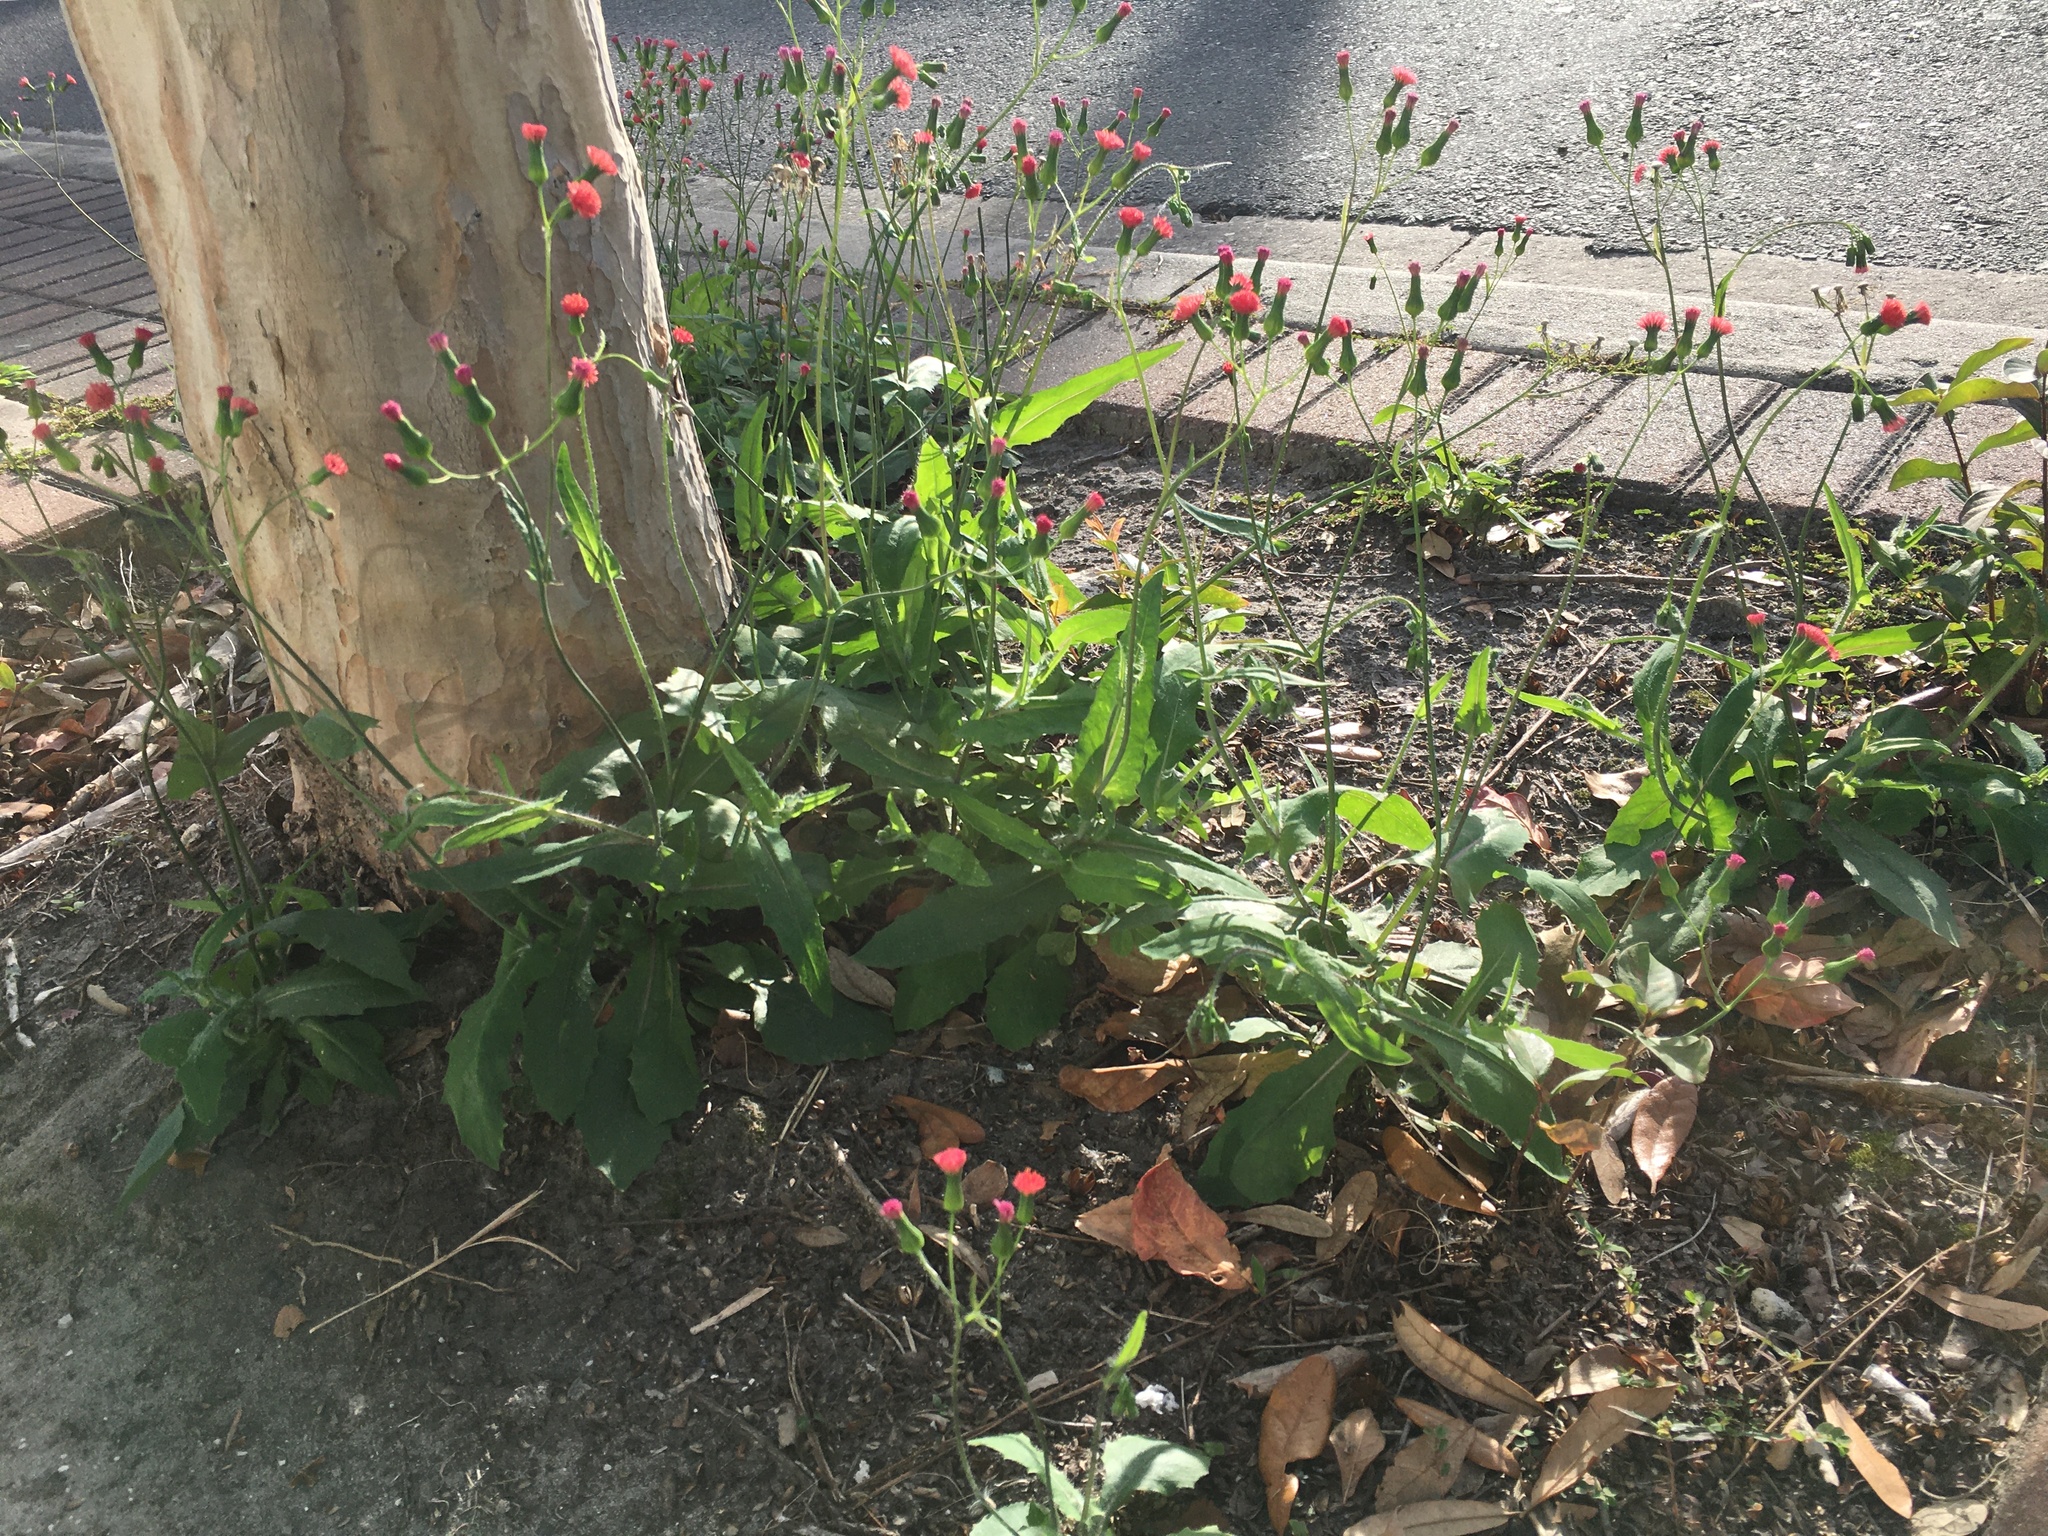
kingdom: Plantae
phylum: Tracheophyta
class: Magnoliopsida
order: Asterales
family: Asteraceae
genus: Emilia
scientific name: Emilia fosbergii
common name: Florida tasselflower
